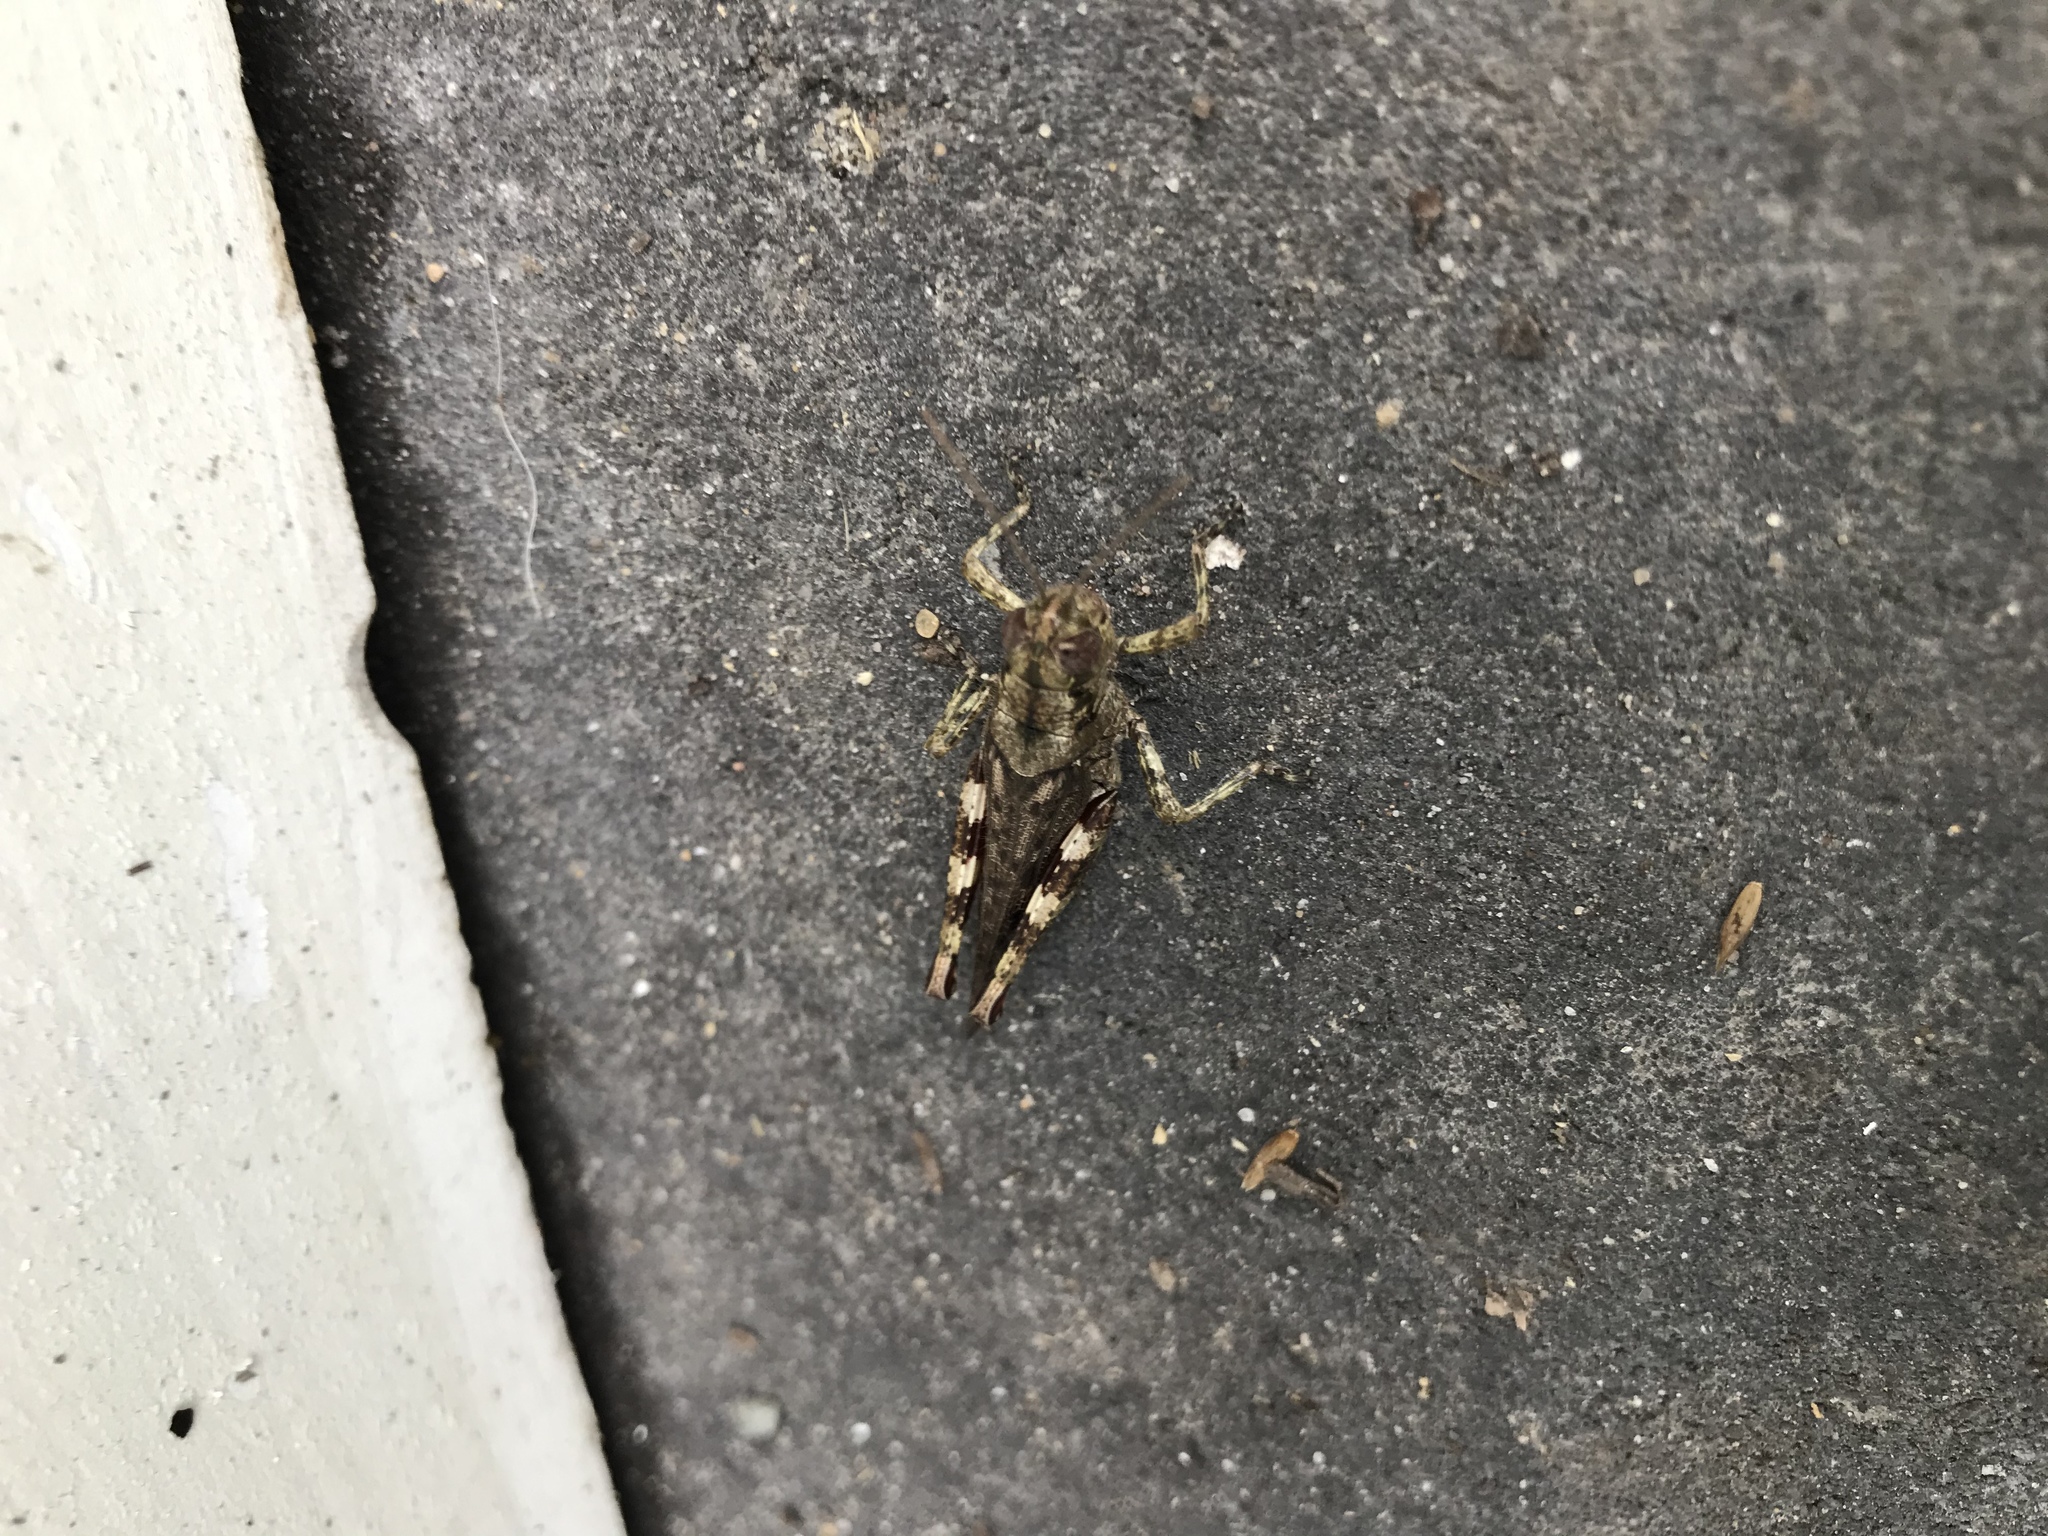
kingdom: Animalia
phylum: Arthropoda
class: Insecta
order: Orthoptera
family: Acrididae
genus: Melanoplus
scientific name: Melanoplus punctulatus
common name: Pine-tree spur-throat grasshopper
